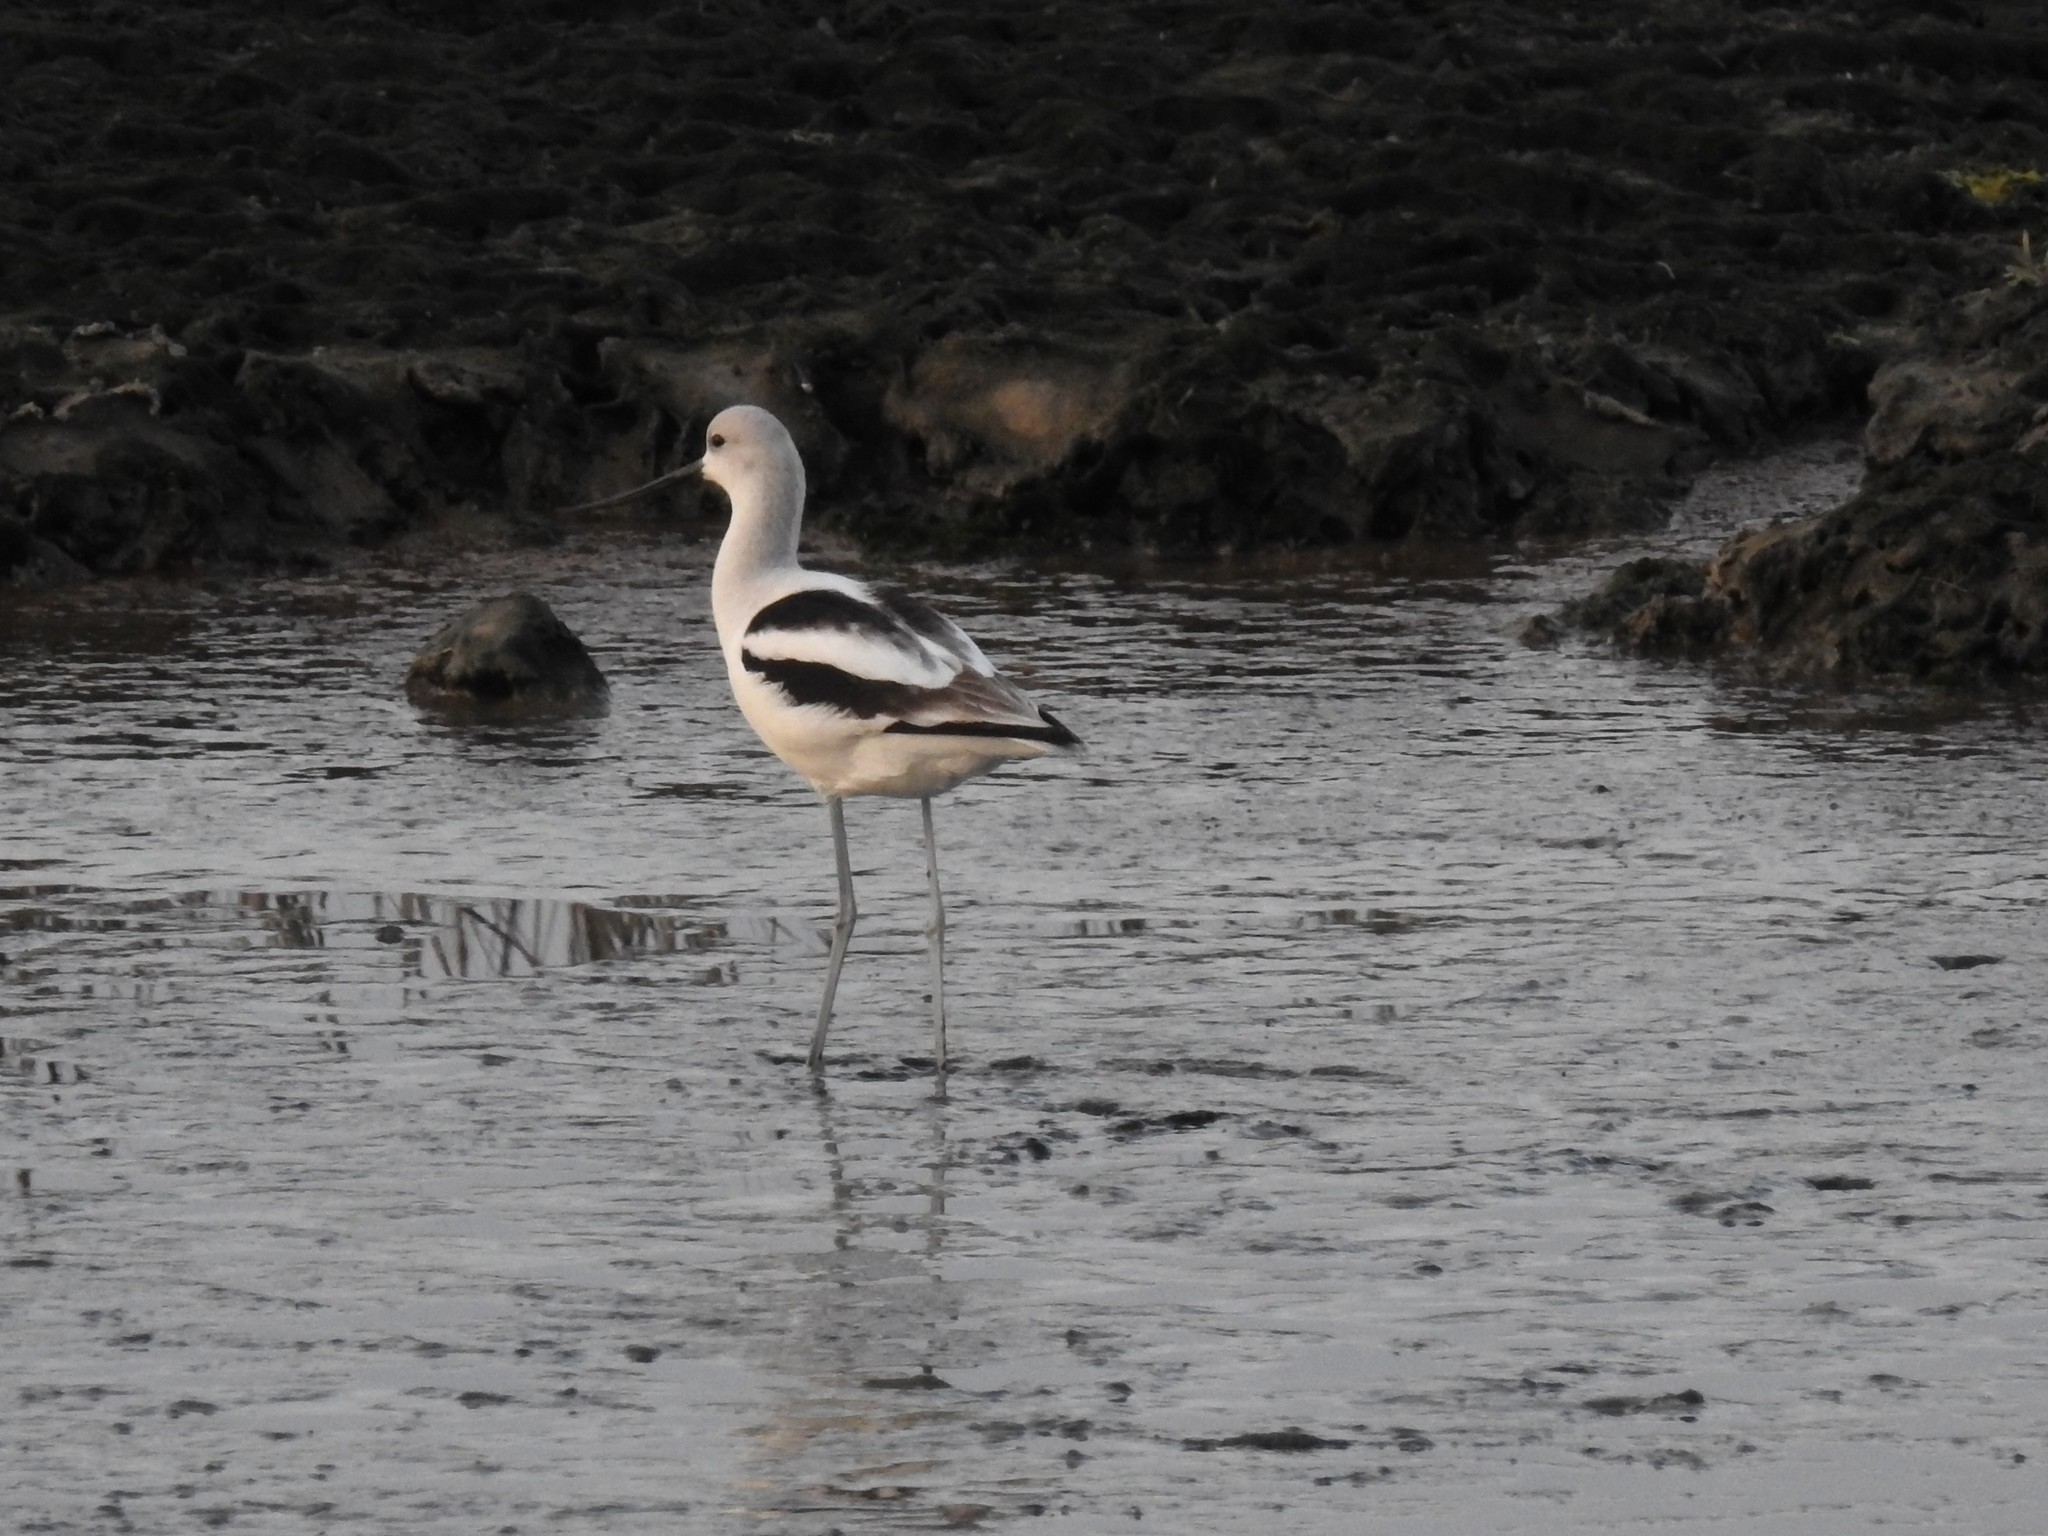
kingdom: Animalia
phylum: Chordata
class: Aves
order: Charadriiformes
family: Recurvirostridae
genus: Recurvirostra
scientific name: Recurvirostra americana
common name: American avocet
